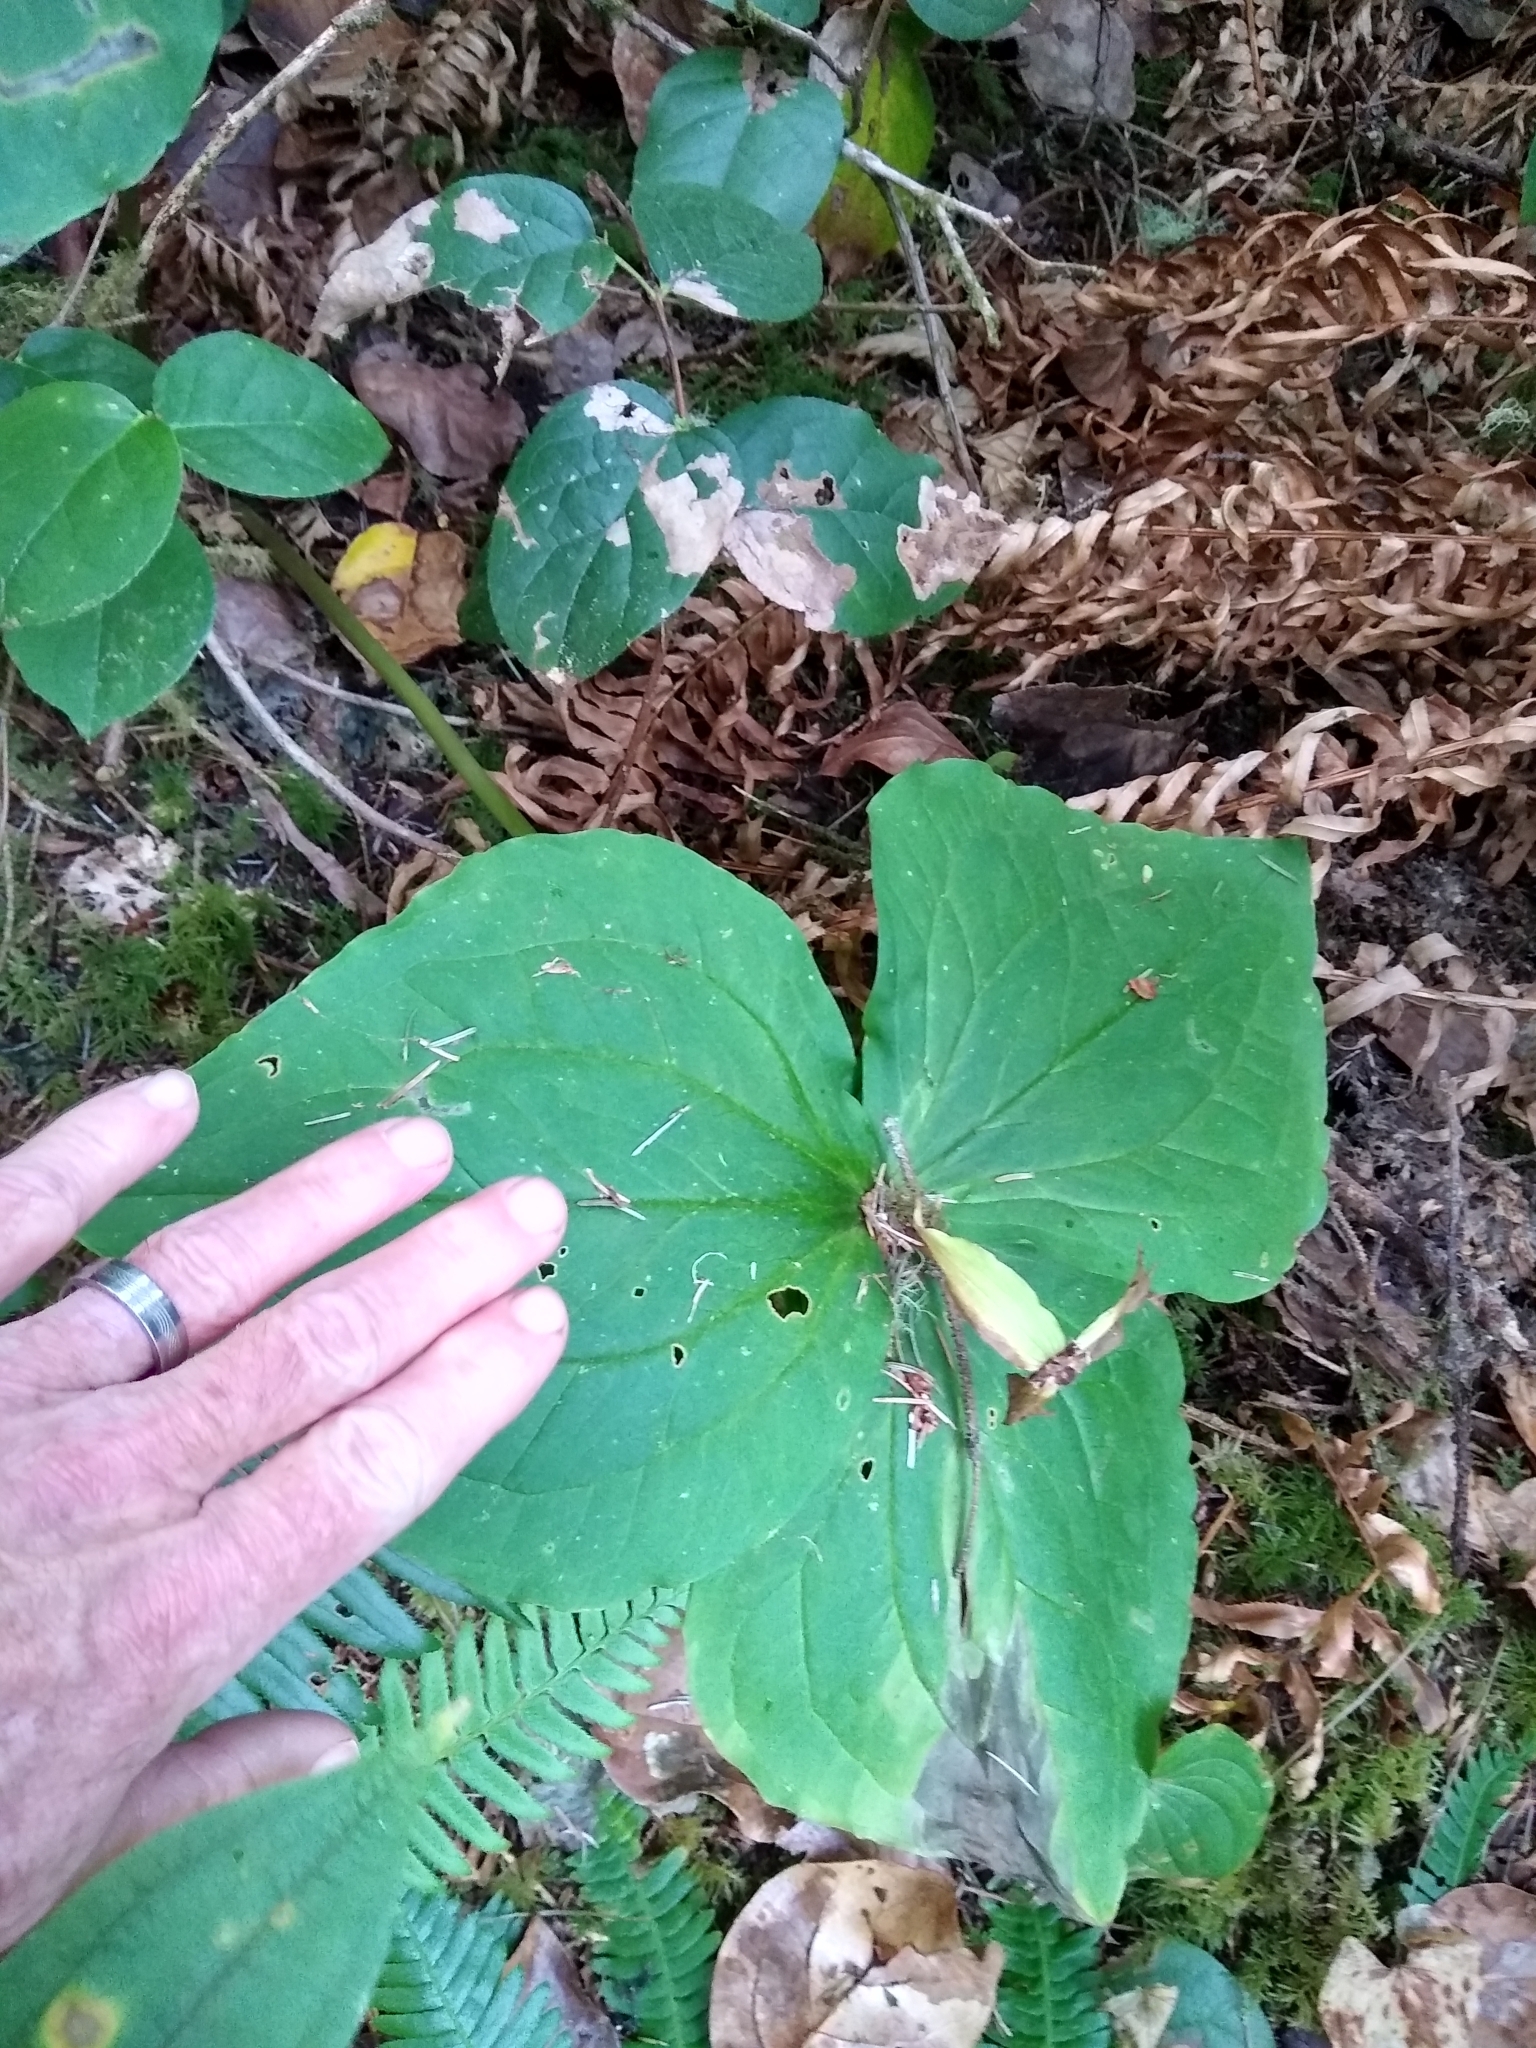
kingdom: Plantae
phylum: Tracheophyta
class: Liliopsida
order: Liliales
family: Melanthiaceae
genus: Trillium
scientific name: Trillium ovatum
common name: Pacific trillium
